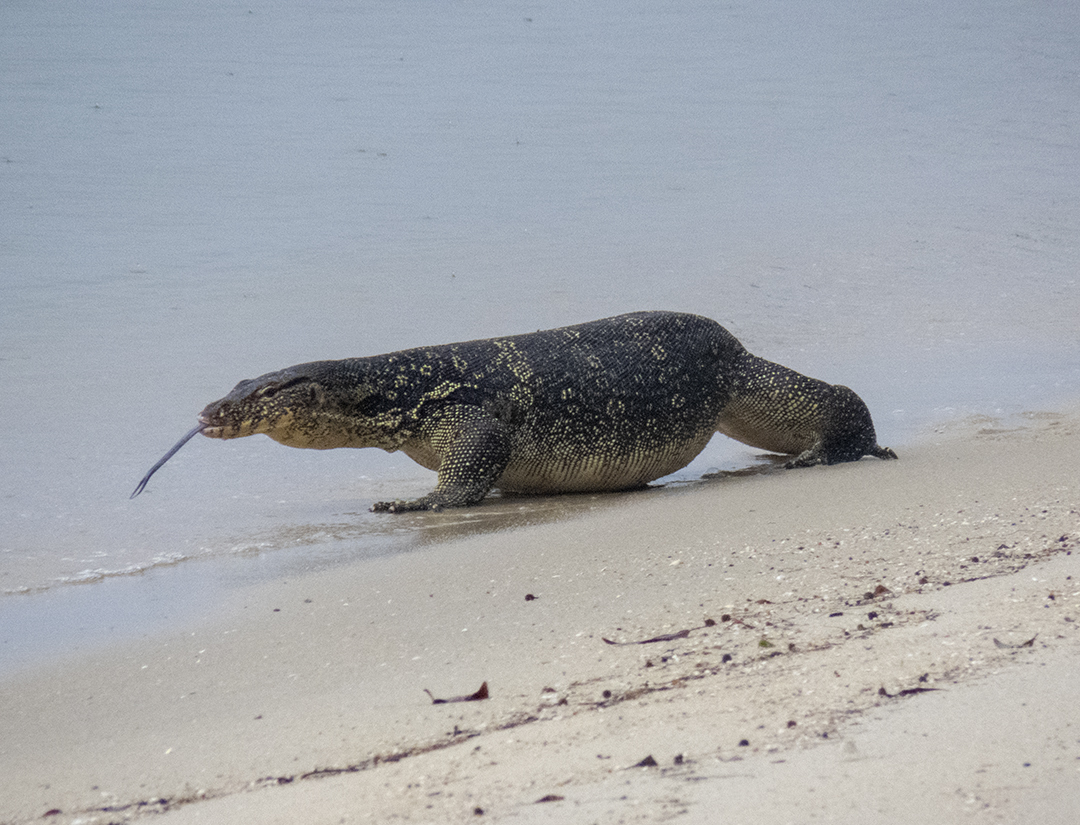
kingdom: Animalia
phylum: Chordata
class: Squamata
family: Varanidae
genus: Varanus
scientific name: Varanus salvator
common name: Common water monitor
